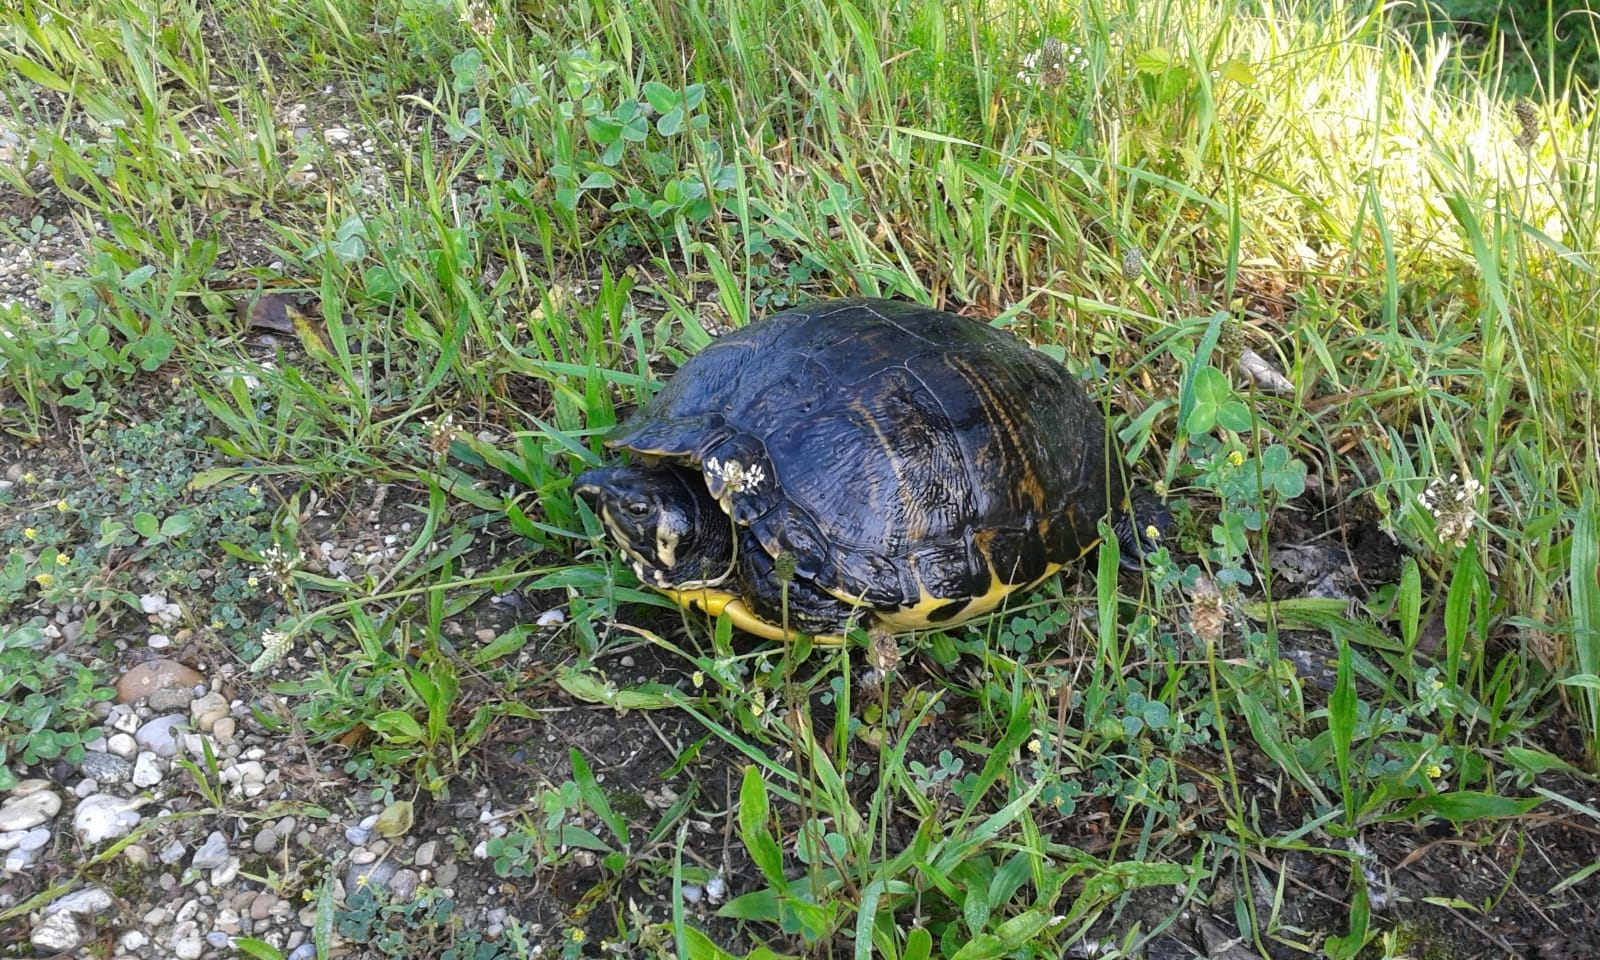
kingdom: Animalia
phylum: Chordata
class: Testudines
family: Emydidae
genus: Trachemys
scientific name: Trachemys scripta
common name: Slider
